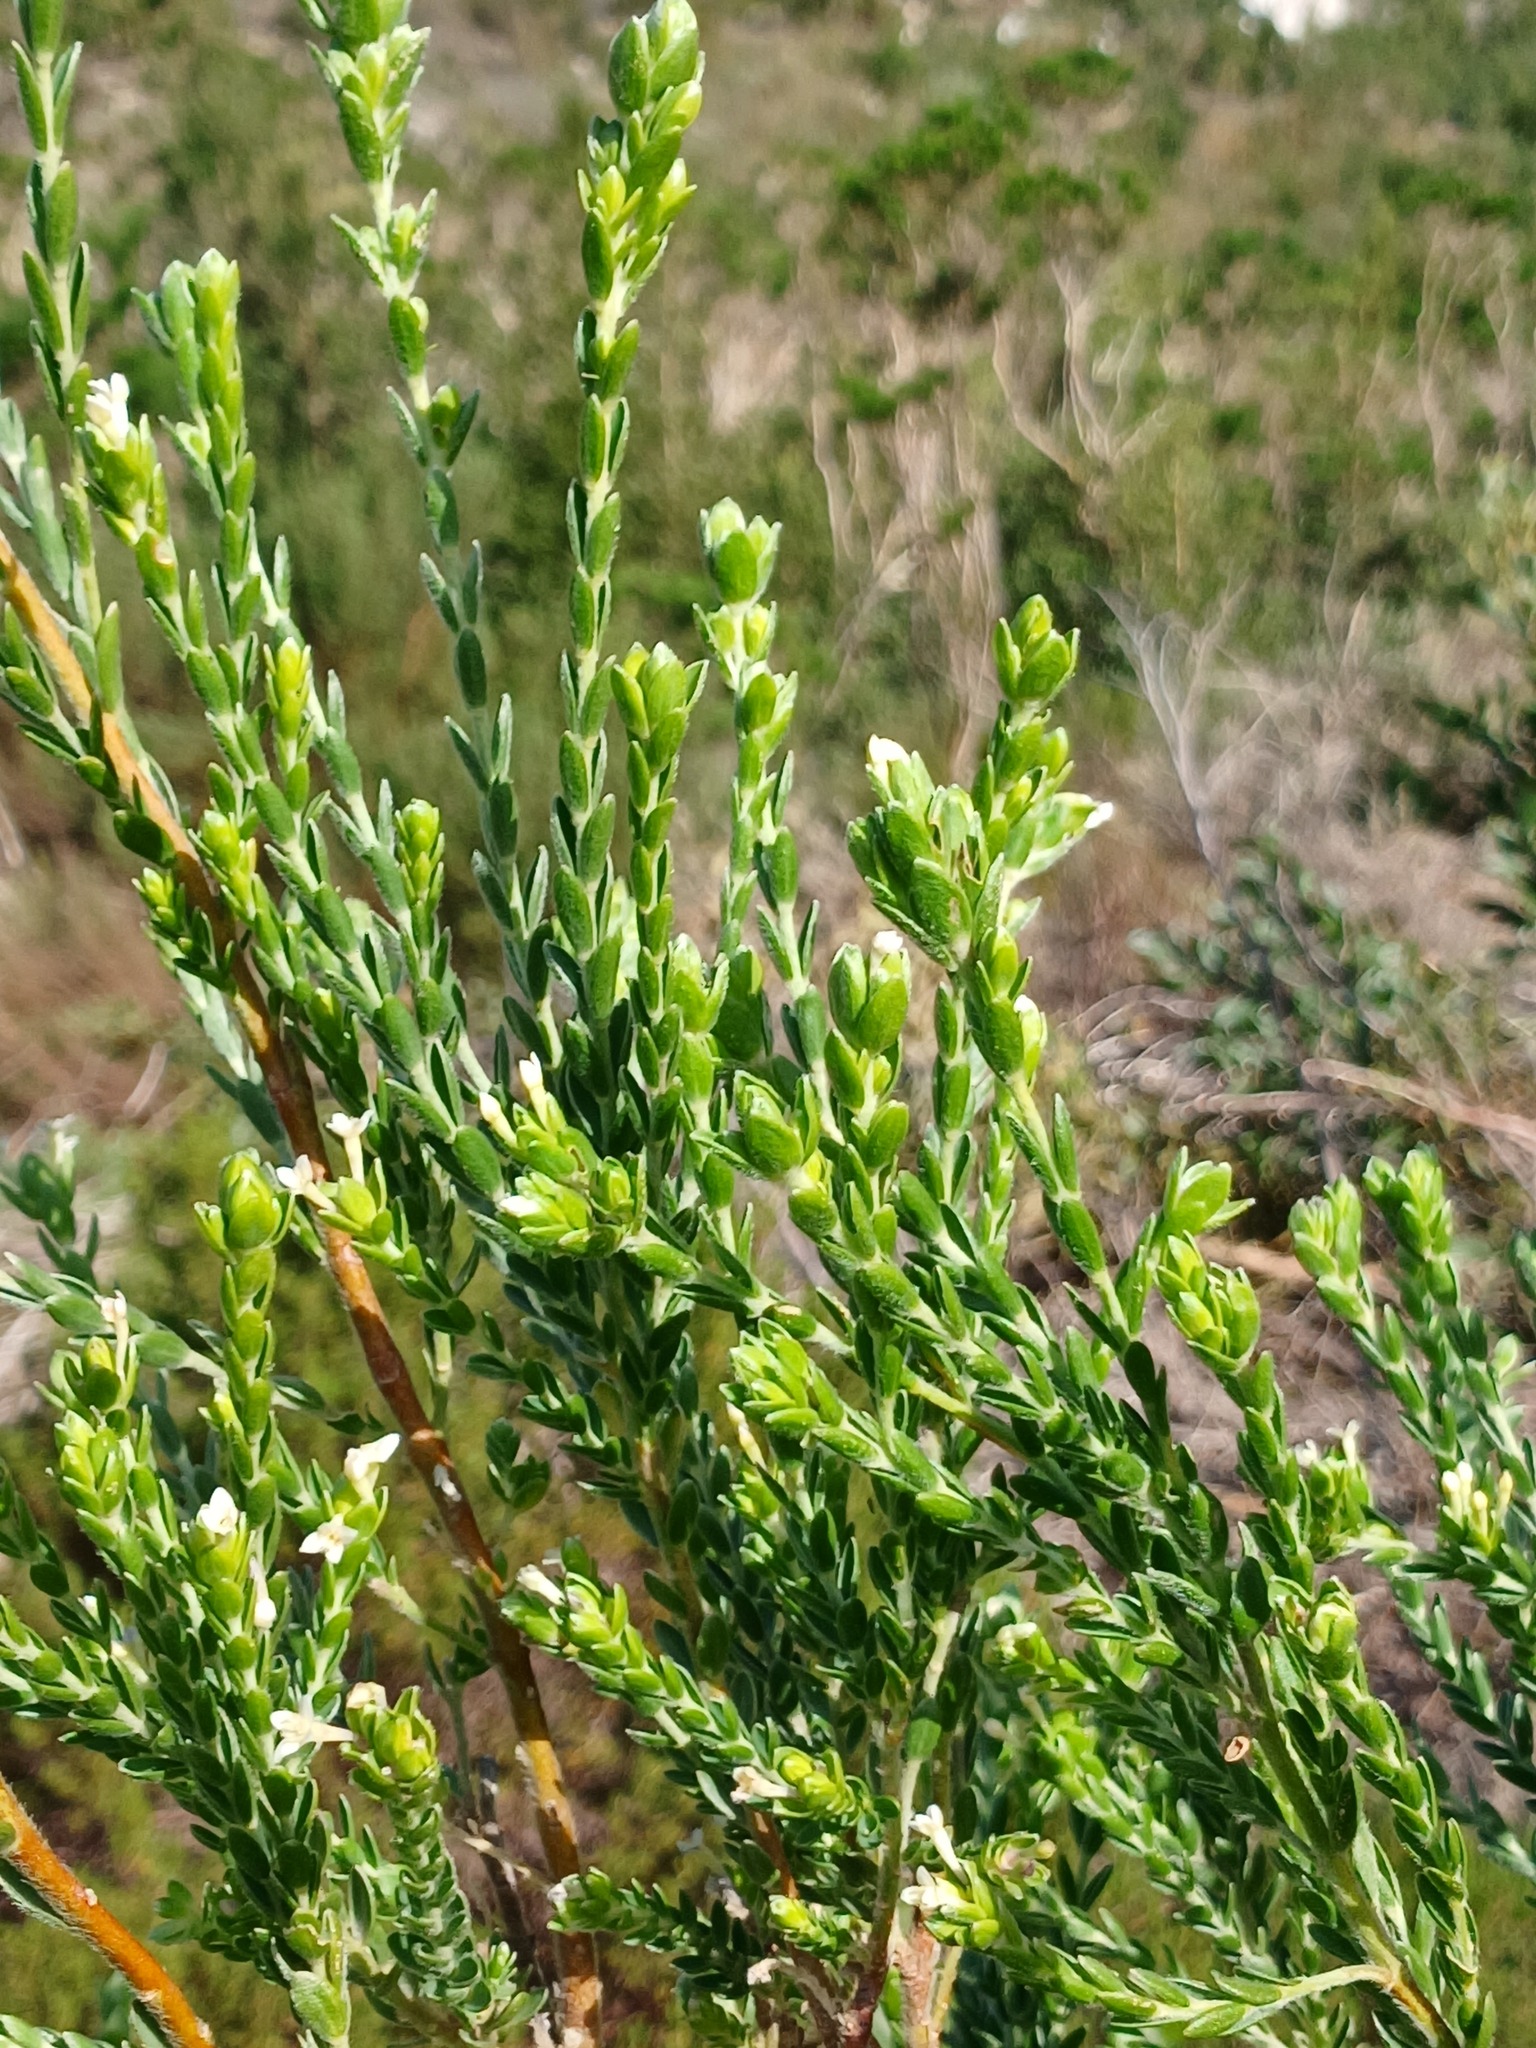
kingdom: Plantae
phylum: Tracheophyta
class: Magnoliopsida
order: Malvales
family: Thymelaeaceae
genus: Gnidia
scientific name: Gnidia sericea
